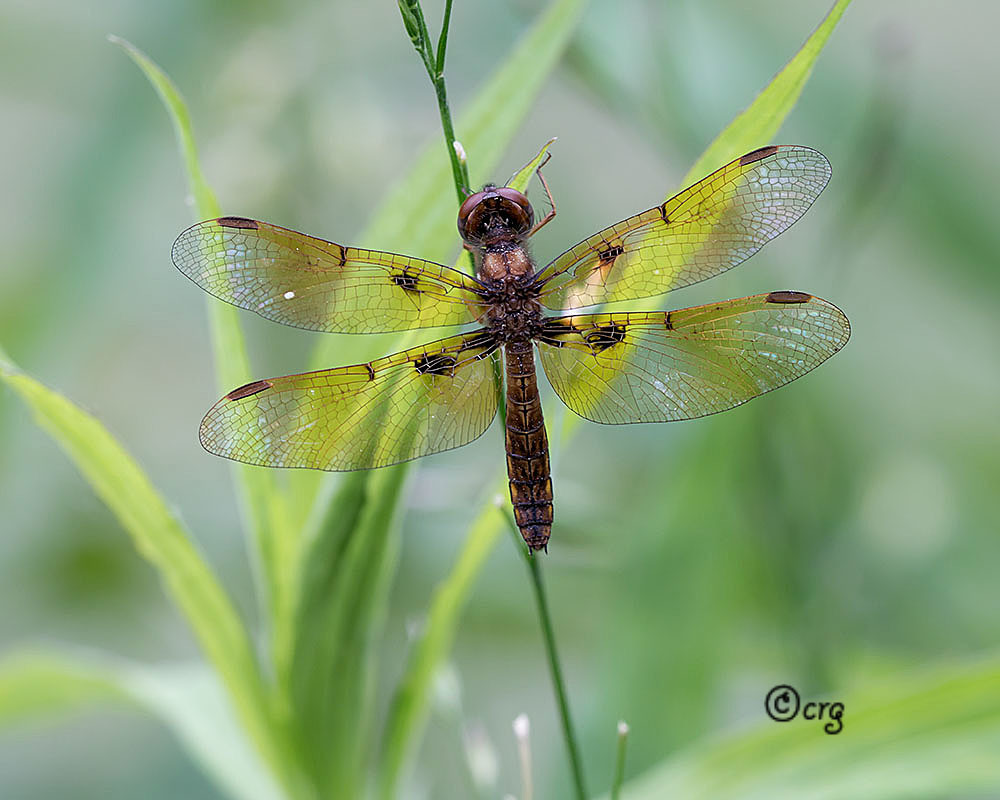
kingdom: Animalia
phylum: Arthropoda
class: Insecta
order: Odonata
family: Libellulidae
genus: Perithemis
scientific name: Perithemis tenera
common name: Eastern amberwing
